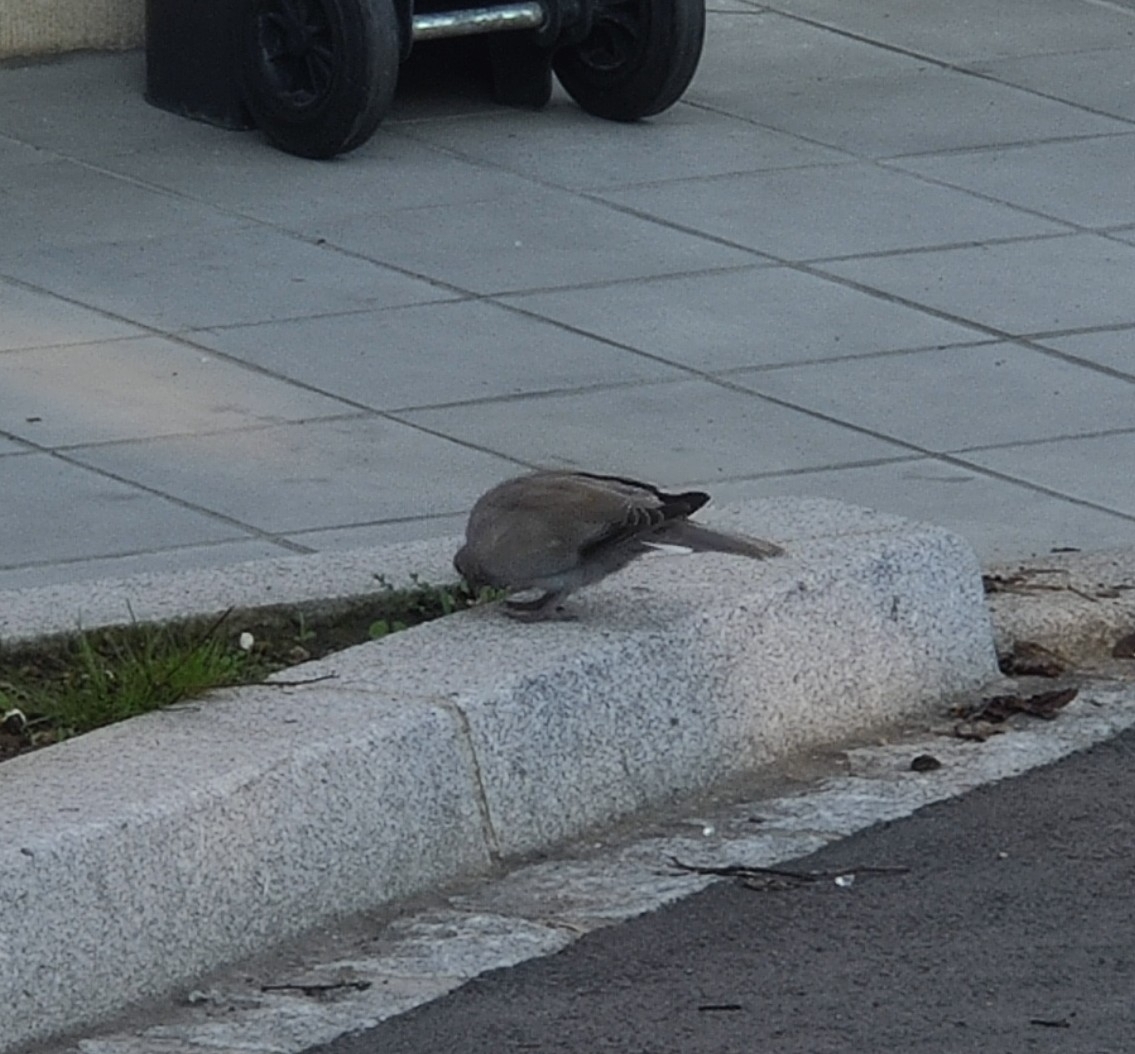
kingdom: Animalia
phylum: Chordata
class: Aves
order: Columbiformes
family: Columbidae
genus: Streptopelia
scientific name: Streptopelia decaocto
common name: Eurasian collared dove
